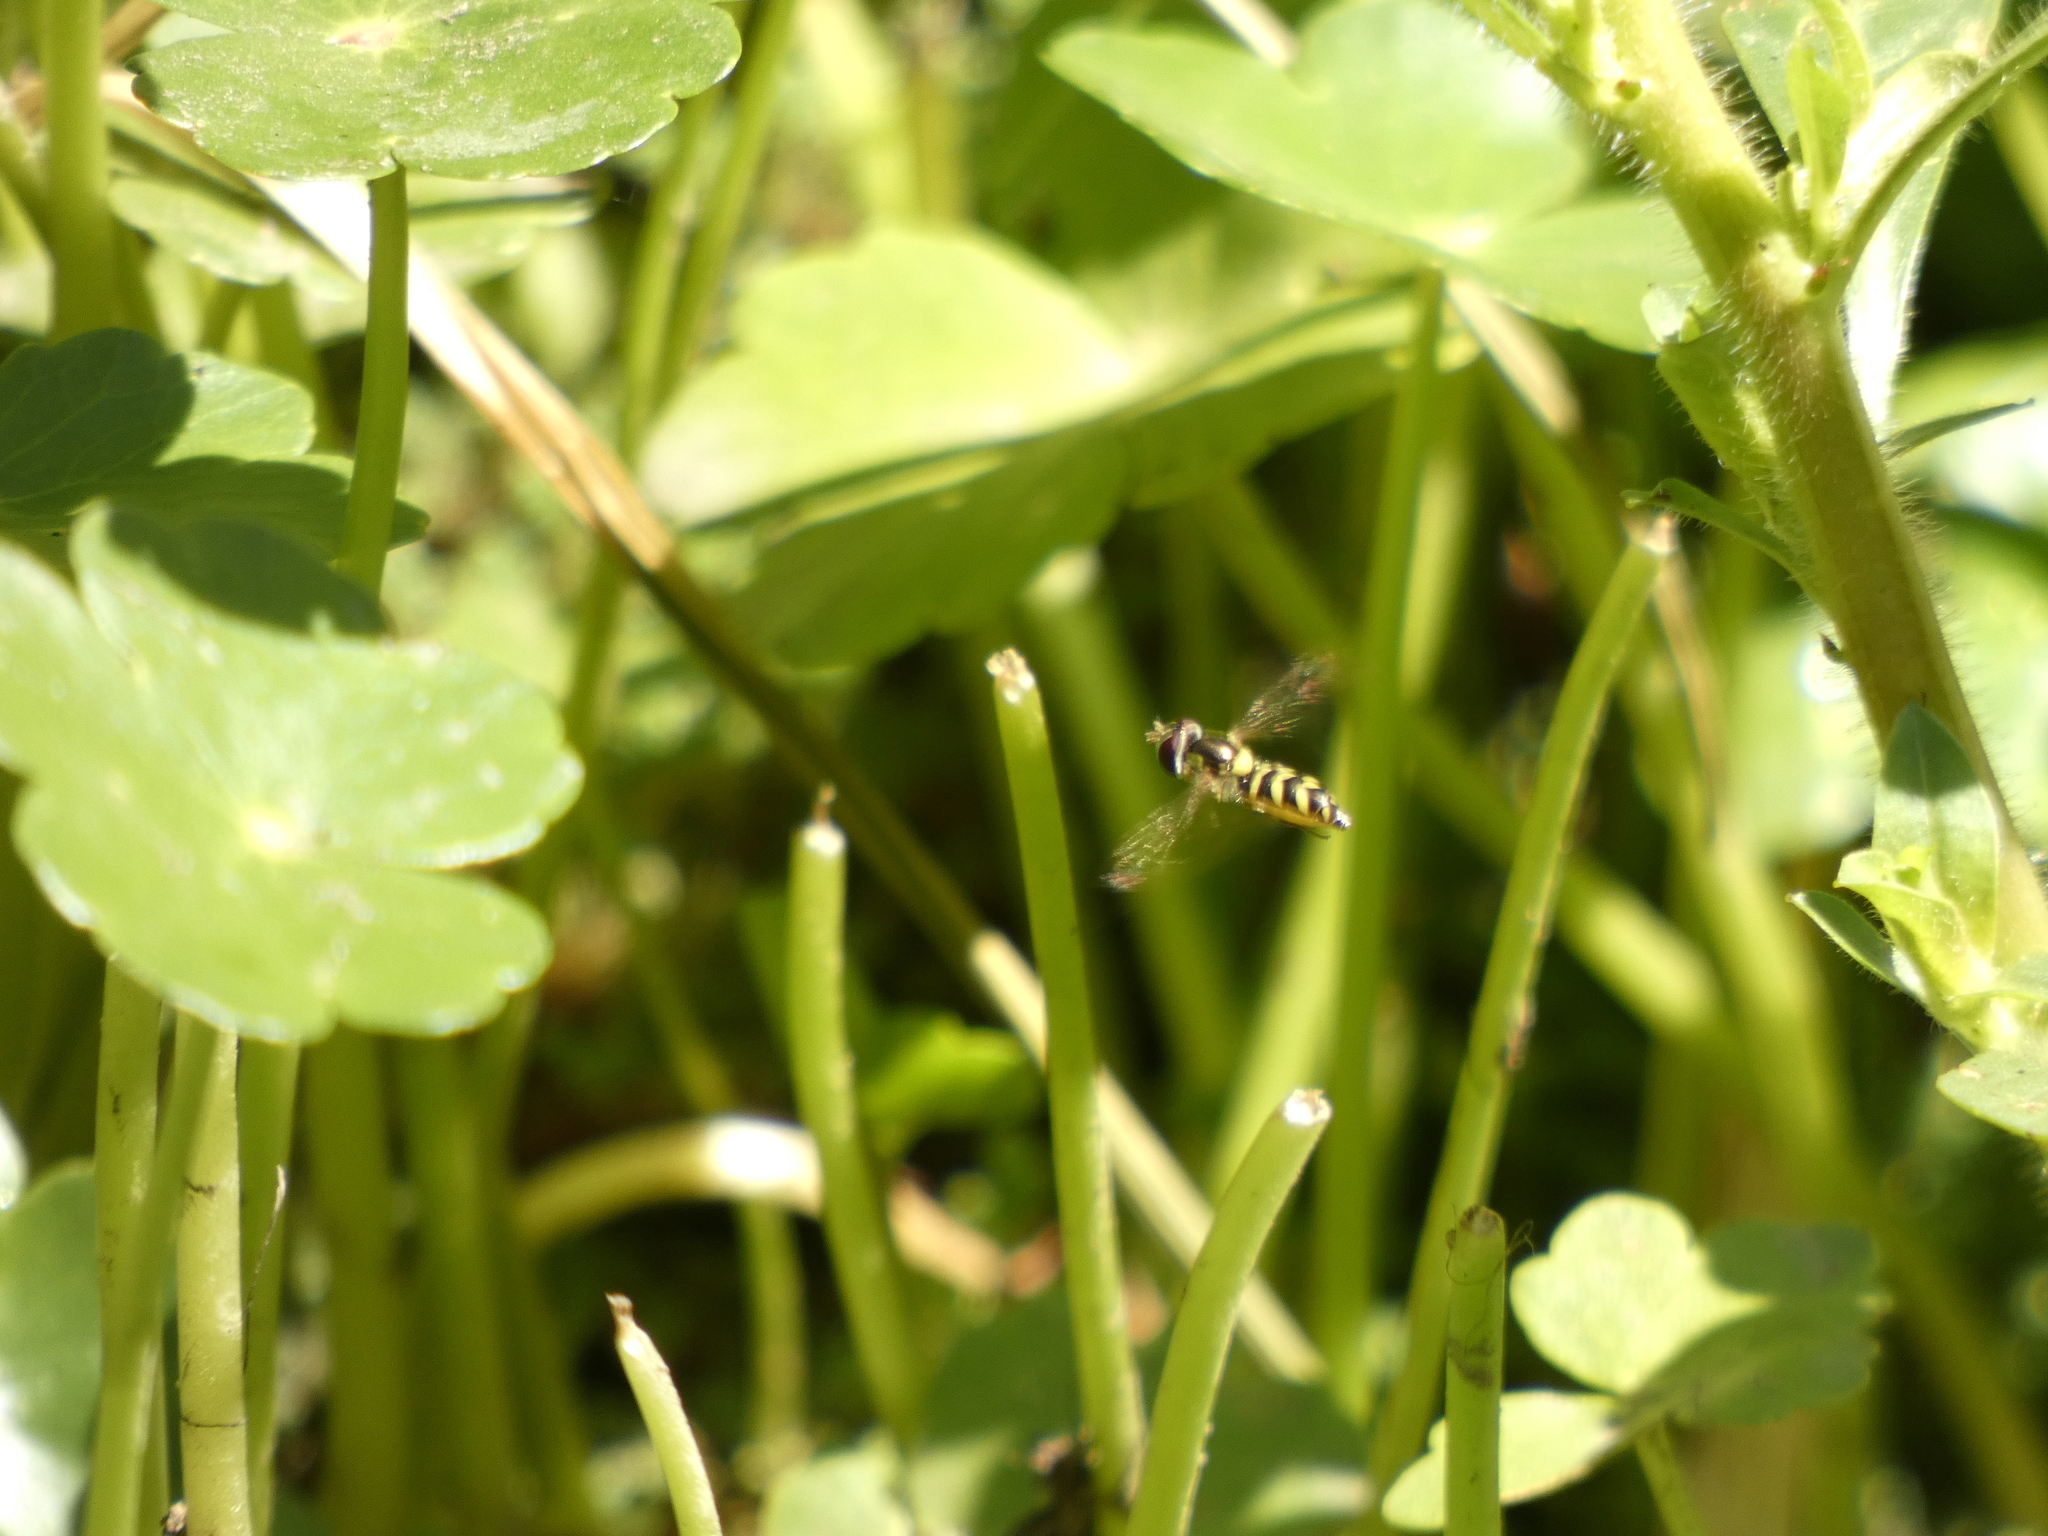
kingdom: Animalia
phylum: Arthropoda
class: Insecta
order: Diptera
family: Syrphidae
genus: Allograpta
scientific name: Allograpta hortensis
